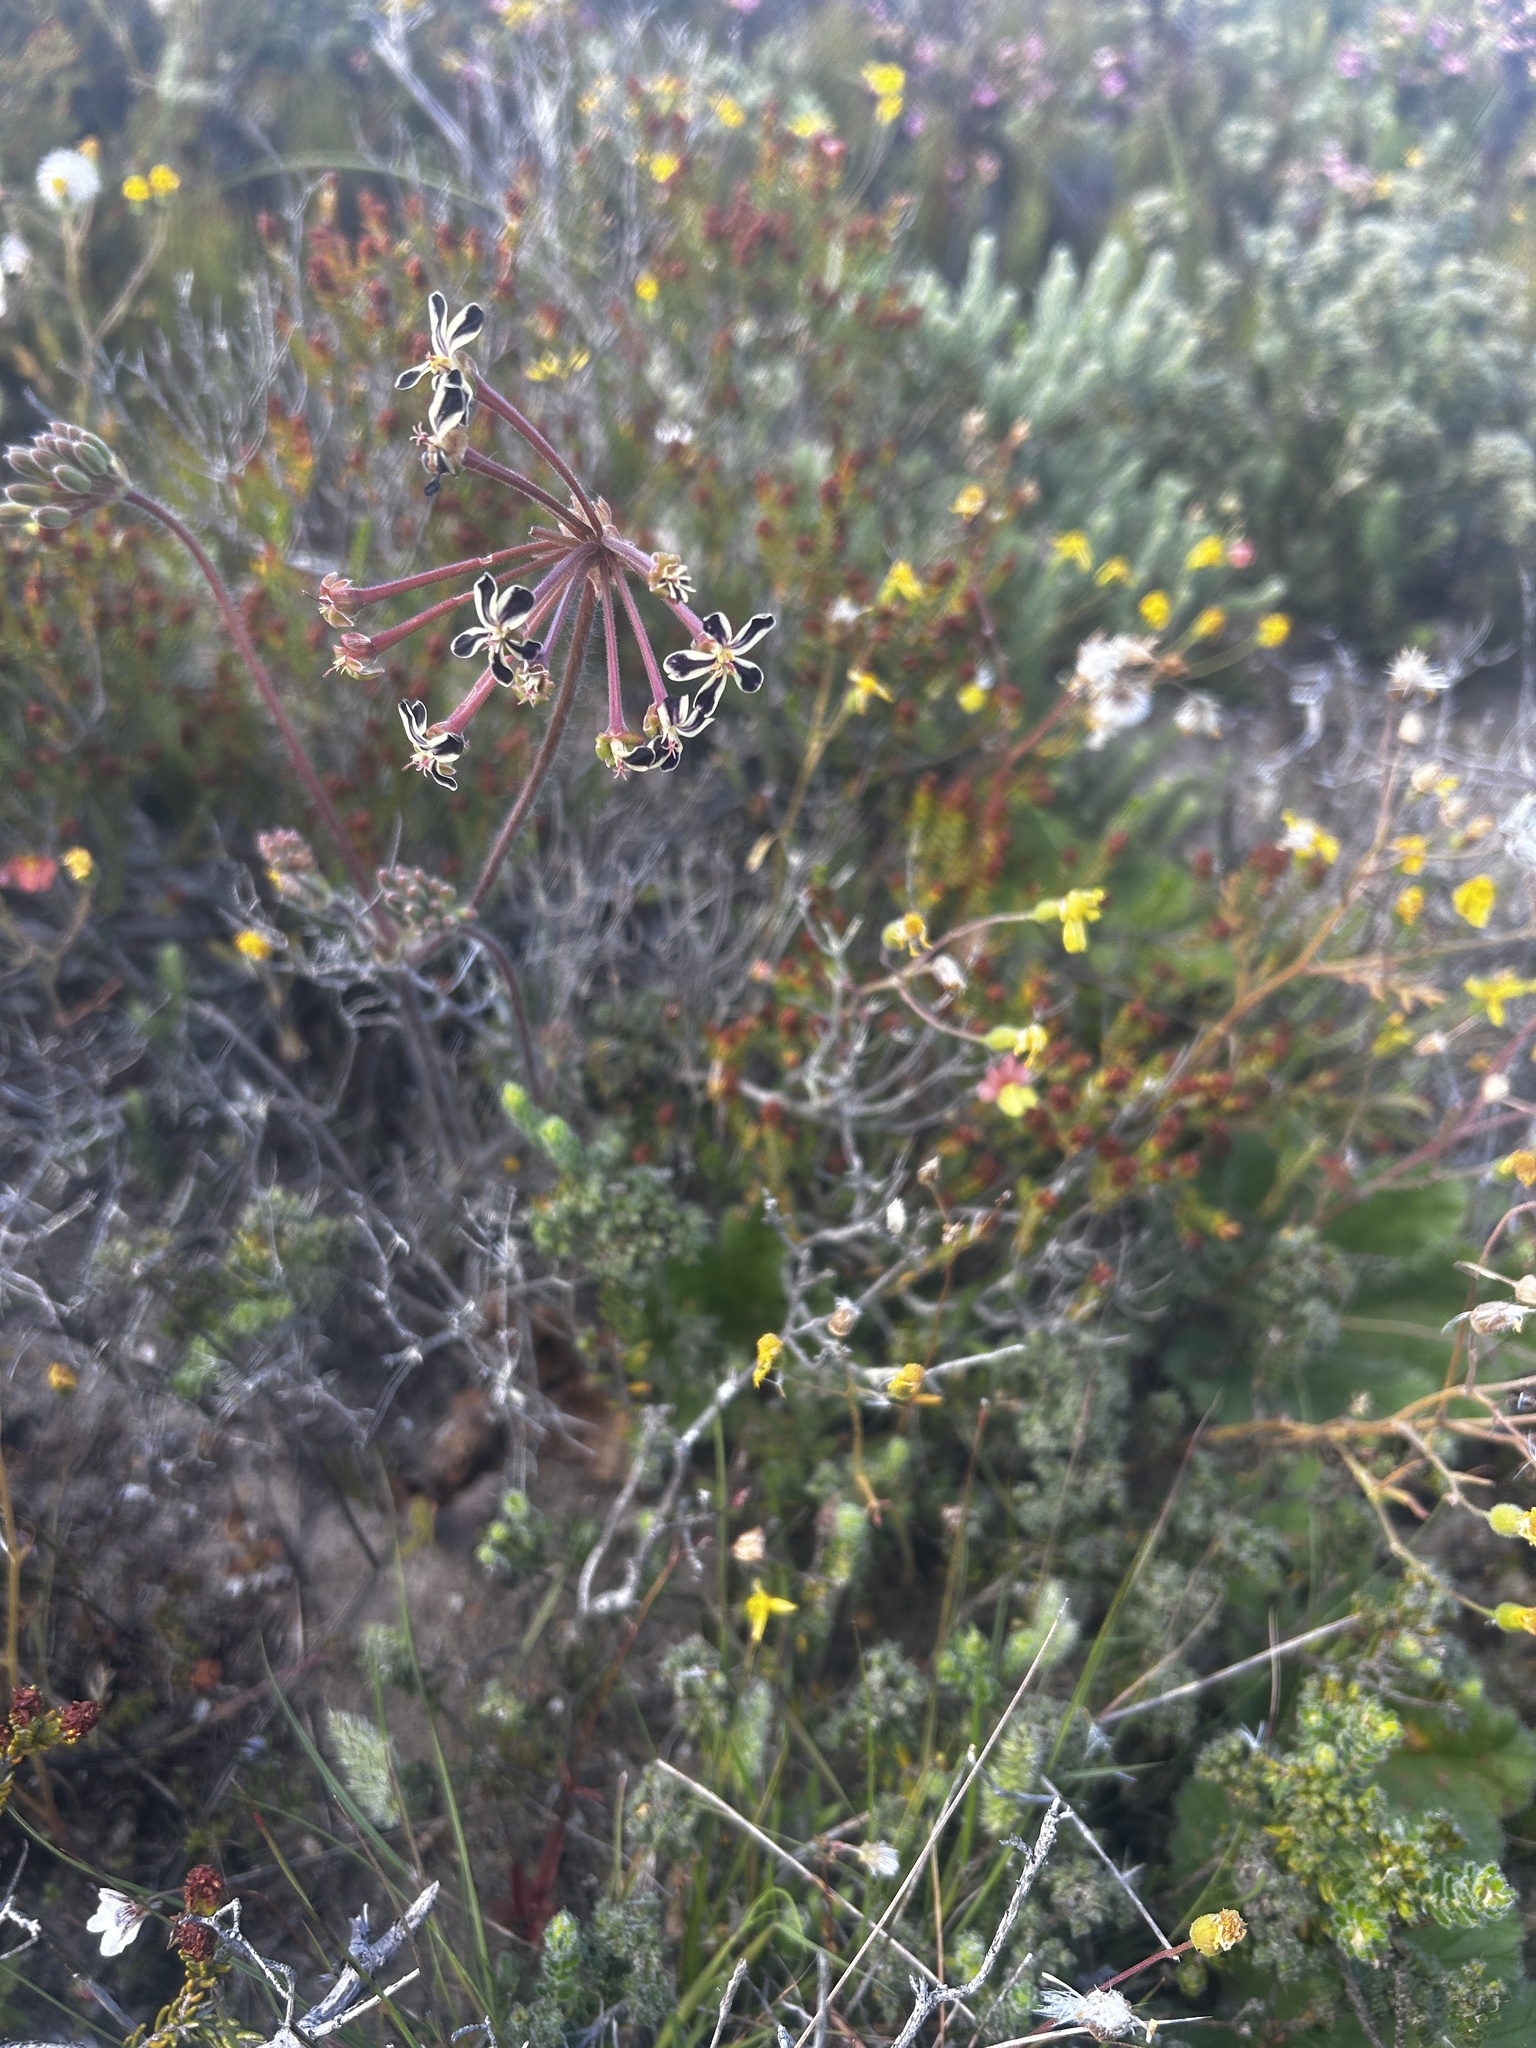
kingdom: Plantae
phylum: Tracheophyta
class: Magnoliopsida
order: Geraniales
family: Geraniaceae
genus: Pelargonium
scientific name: Pelargonium lobatum
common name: Vine-leaf pelargonium
